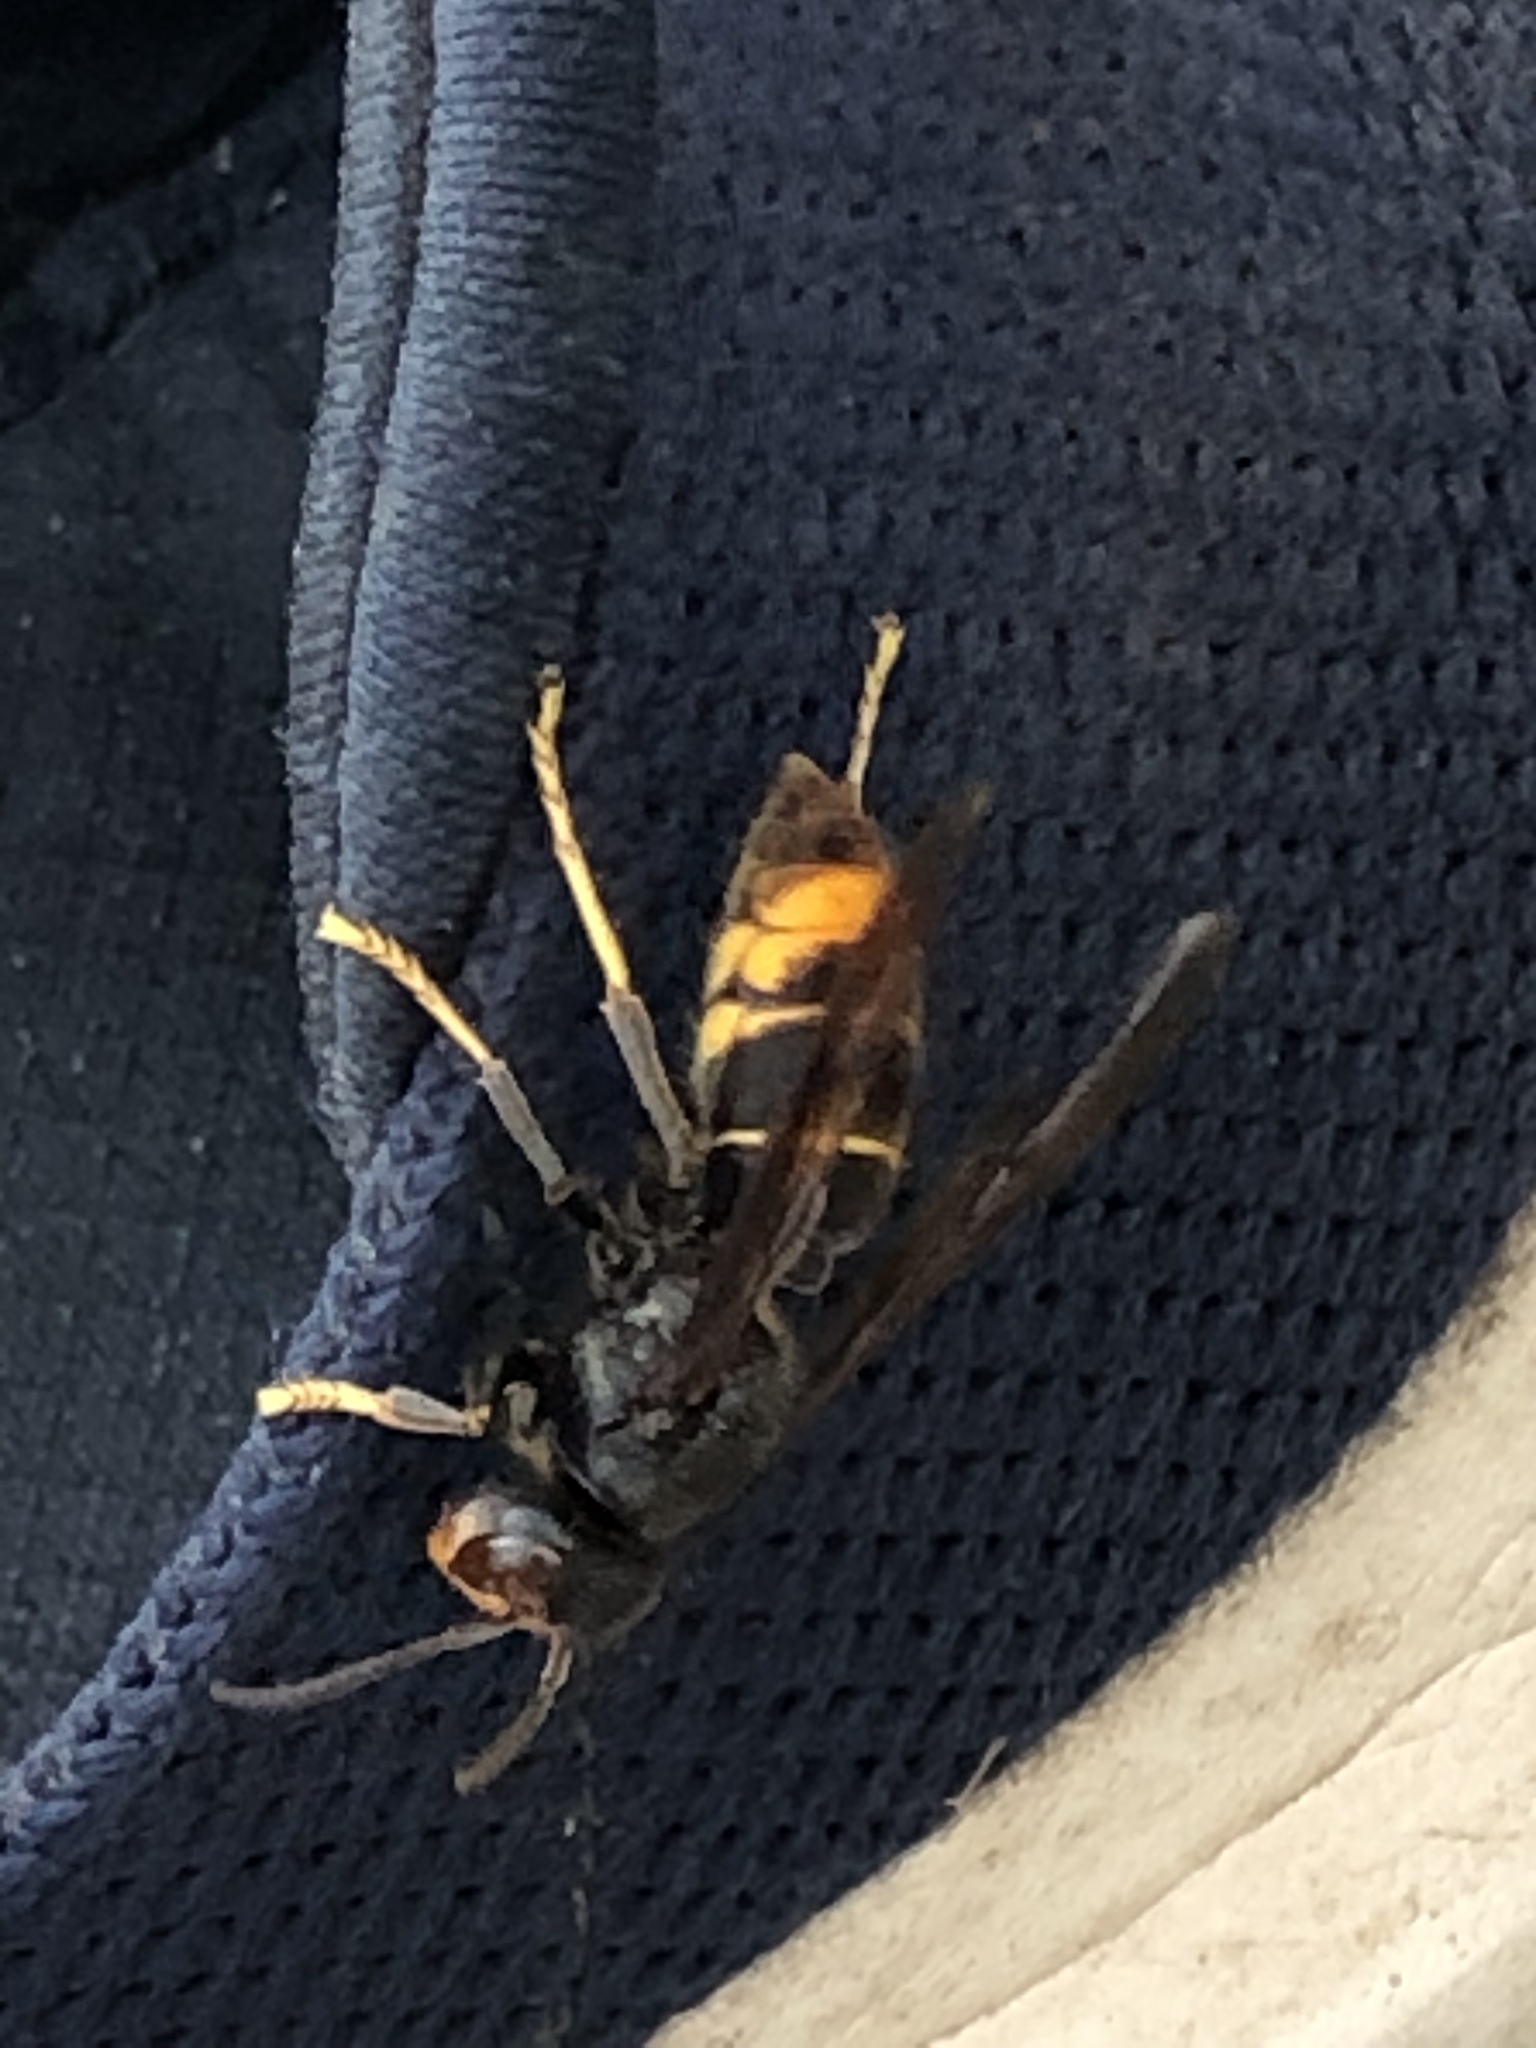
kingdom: Animalia
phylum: Arthropoda
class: Insecta
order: Hymenoptera
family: Vespidae
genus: Vespa
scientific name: Vespa velutina
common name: Asian hornet
